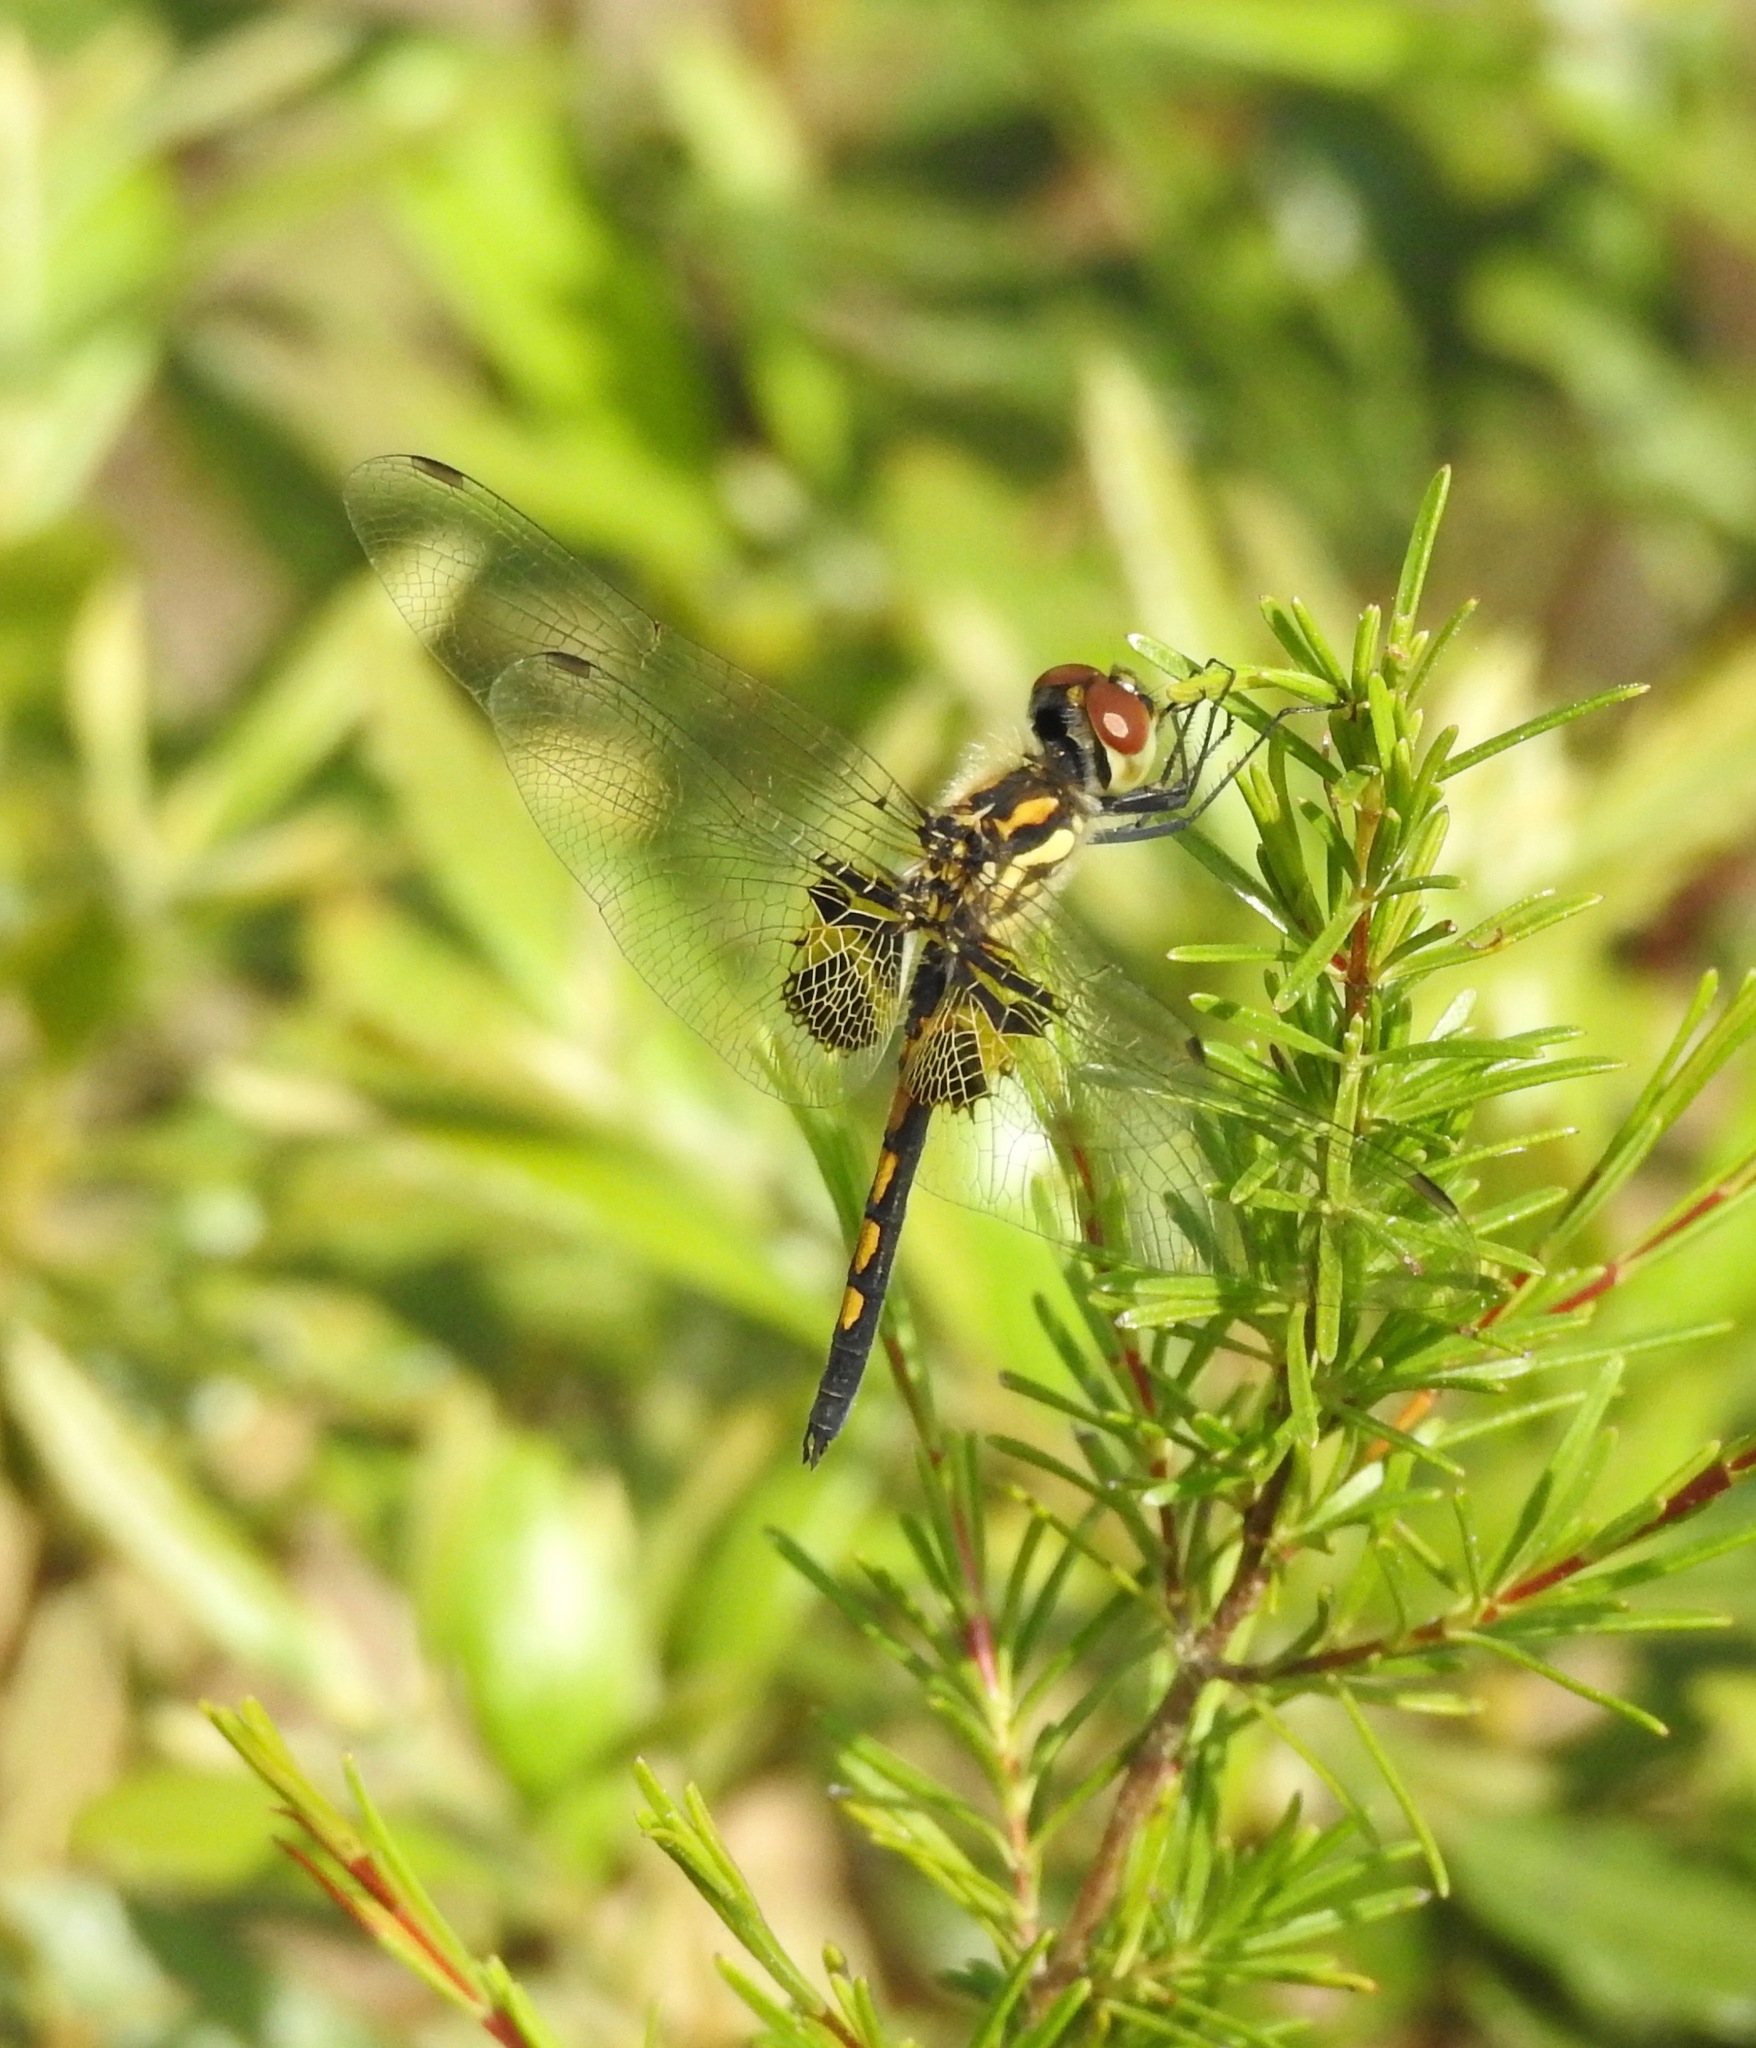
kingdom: Animalia
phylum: Arthropoda
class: Insecta
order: Odonata
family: Libellulidae
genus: Celithemis
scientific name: Celithemis ornata
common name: Ornate pennant
